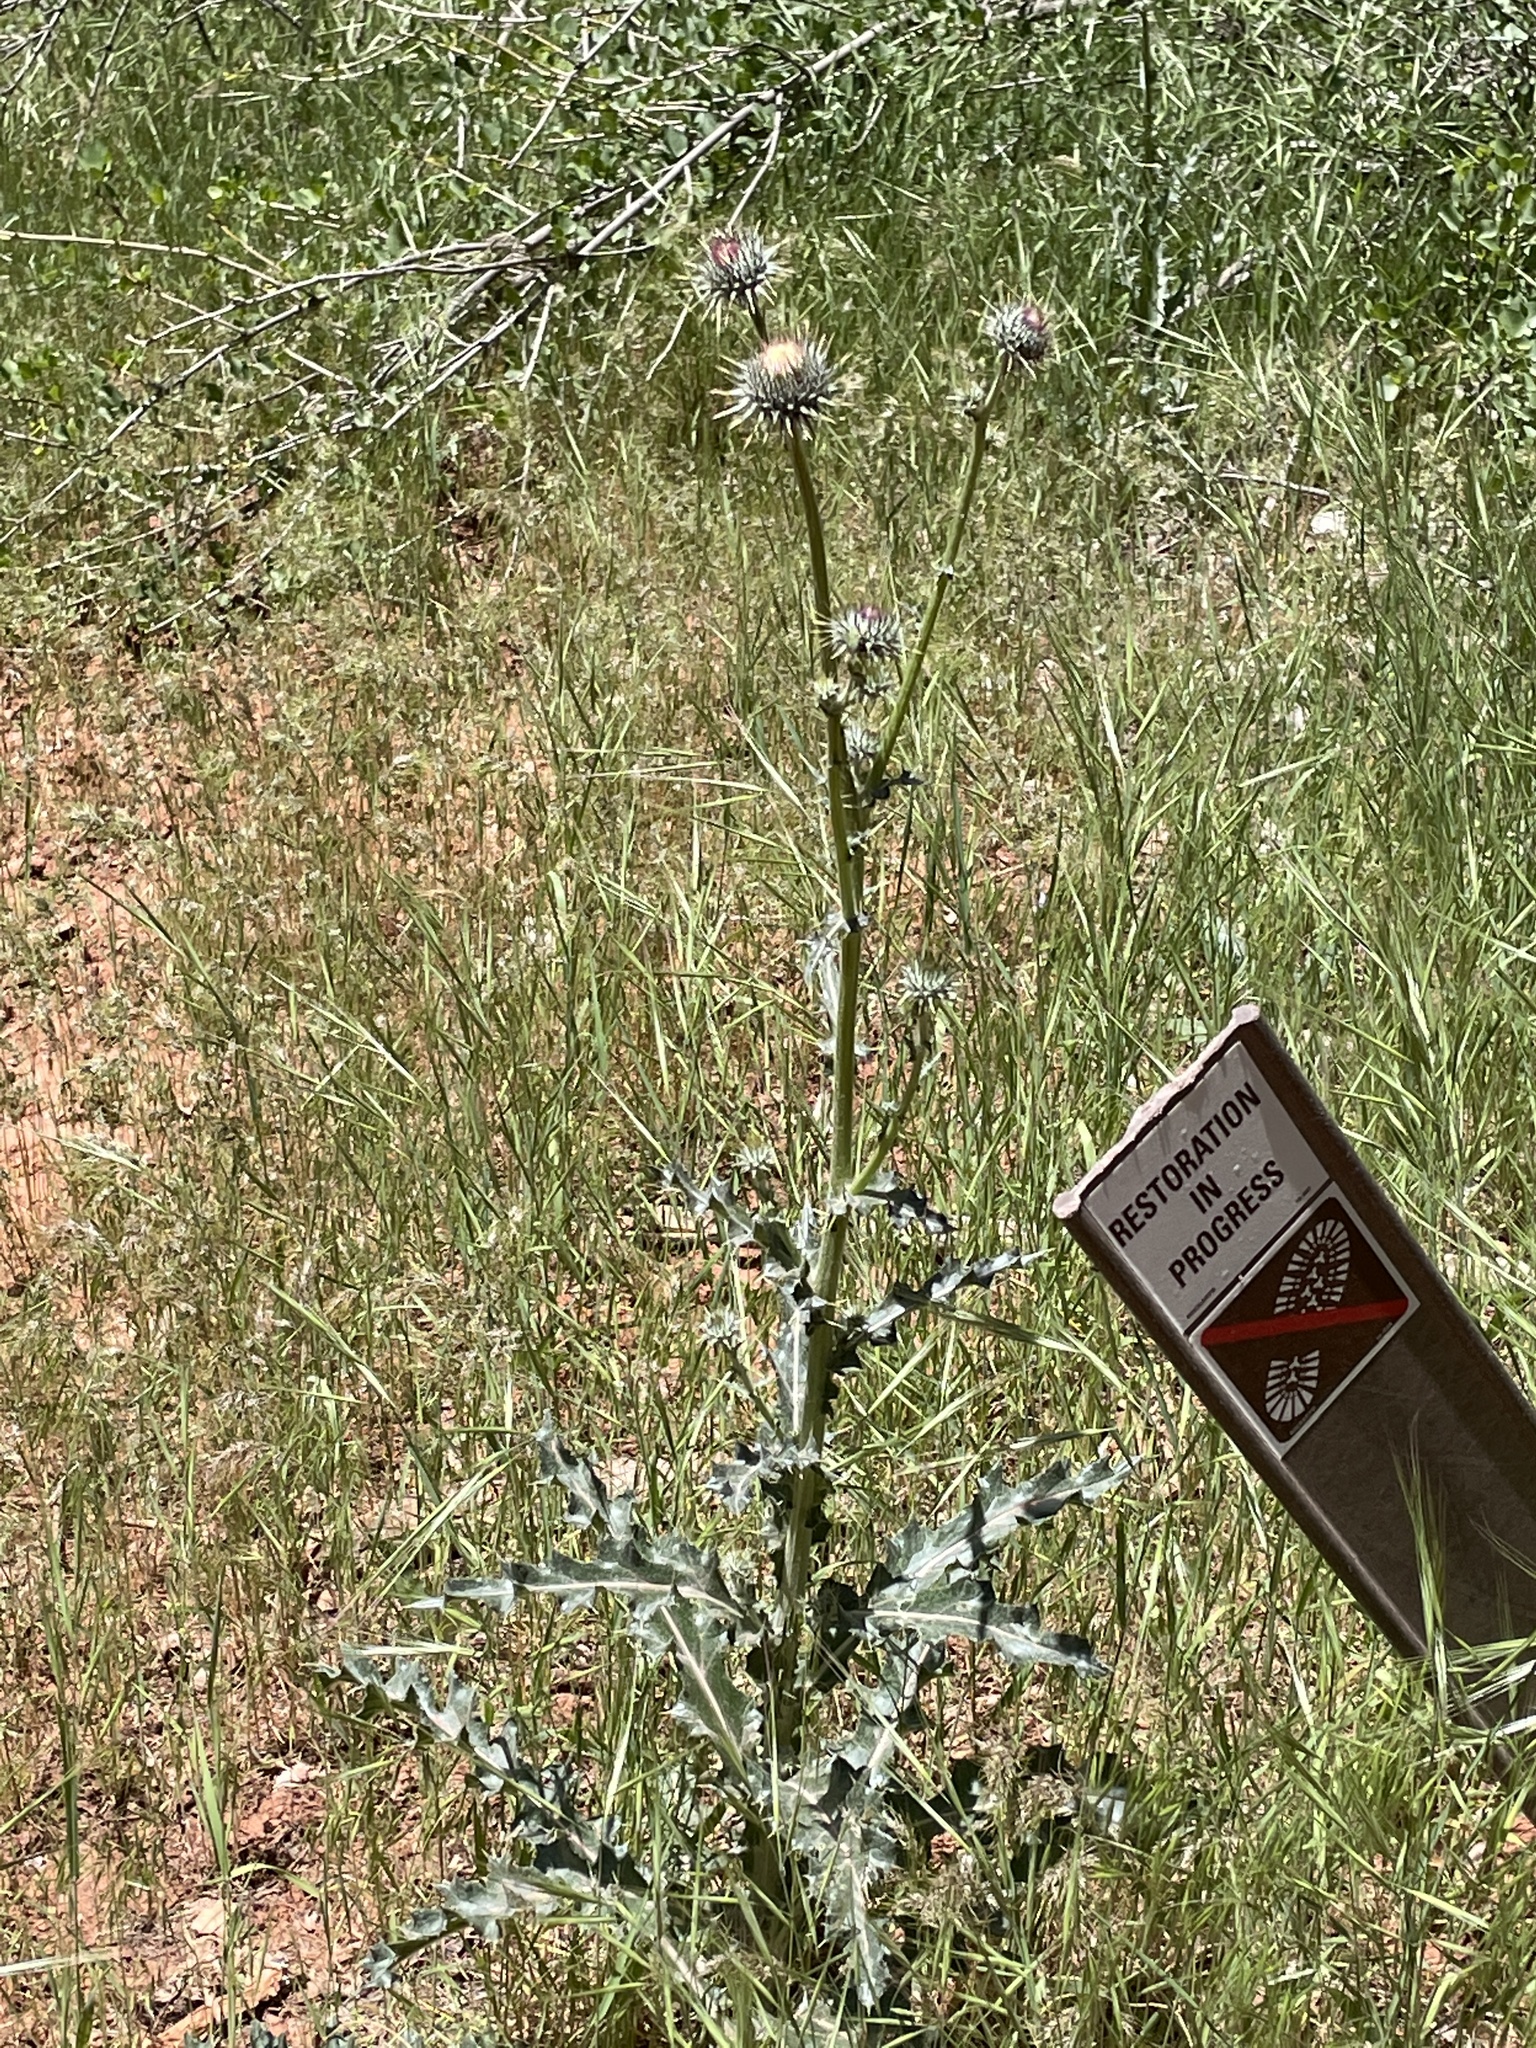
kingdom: Plantae
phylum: Tracheophyta
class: Magnoliopsida
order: Asterales
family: Asteraceae
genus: Cirsium
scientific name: Cirsium neomexicanum
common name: New mexico thistle
